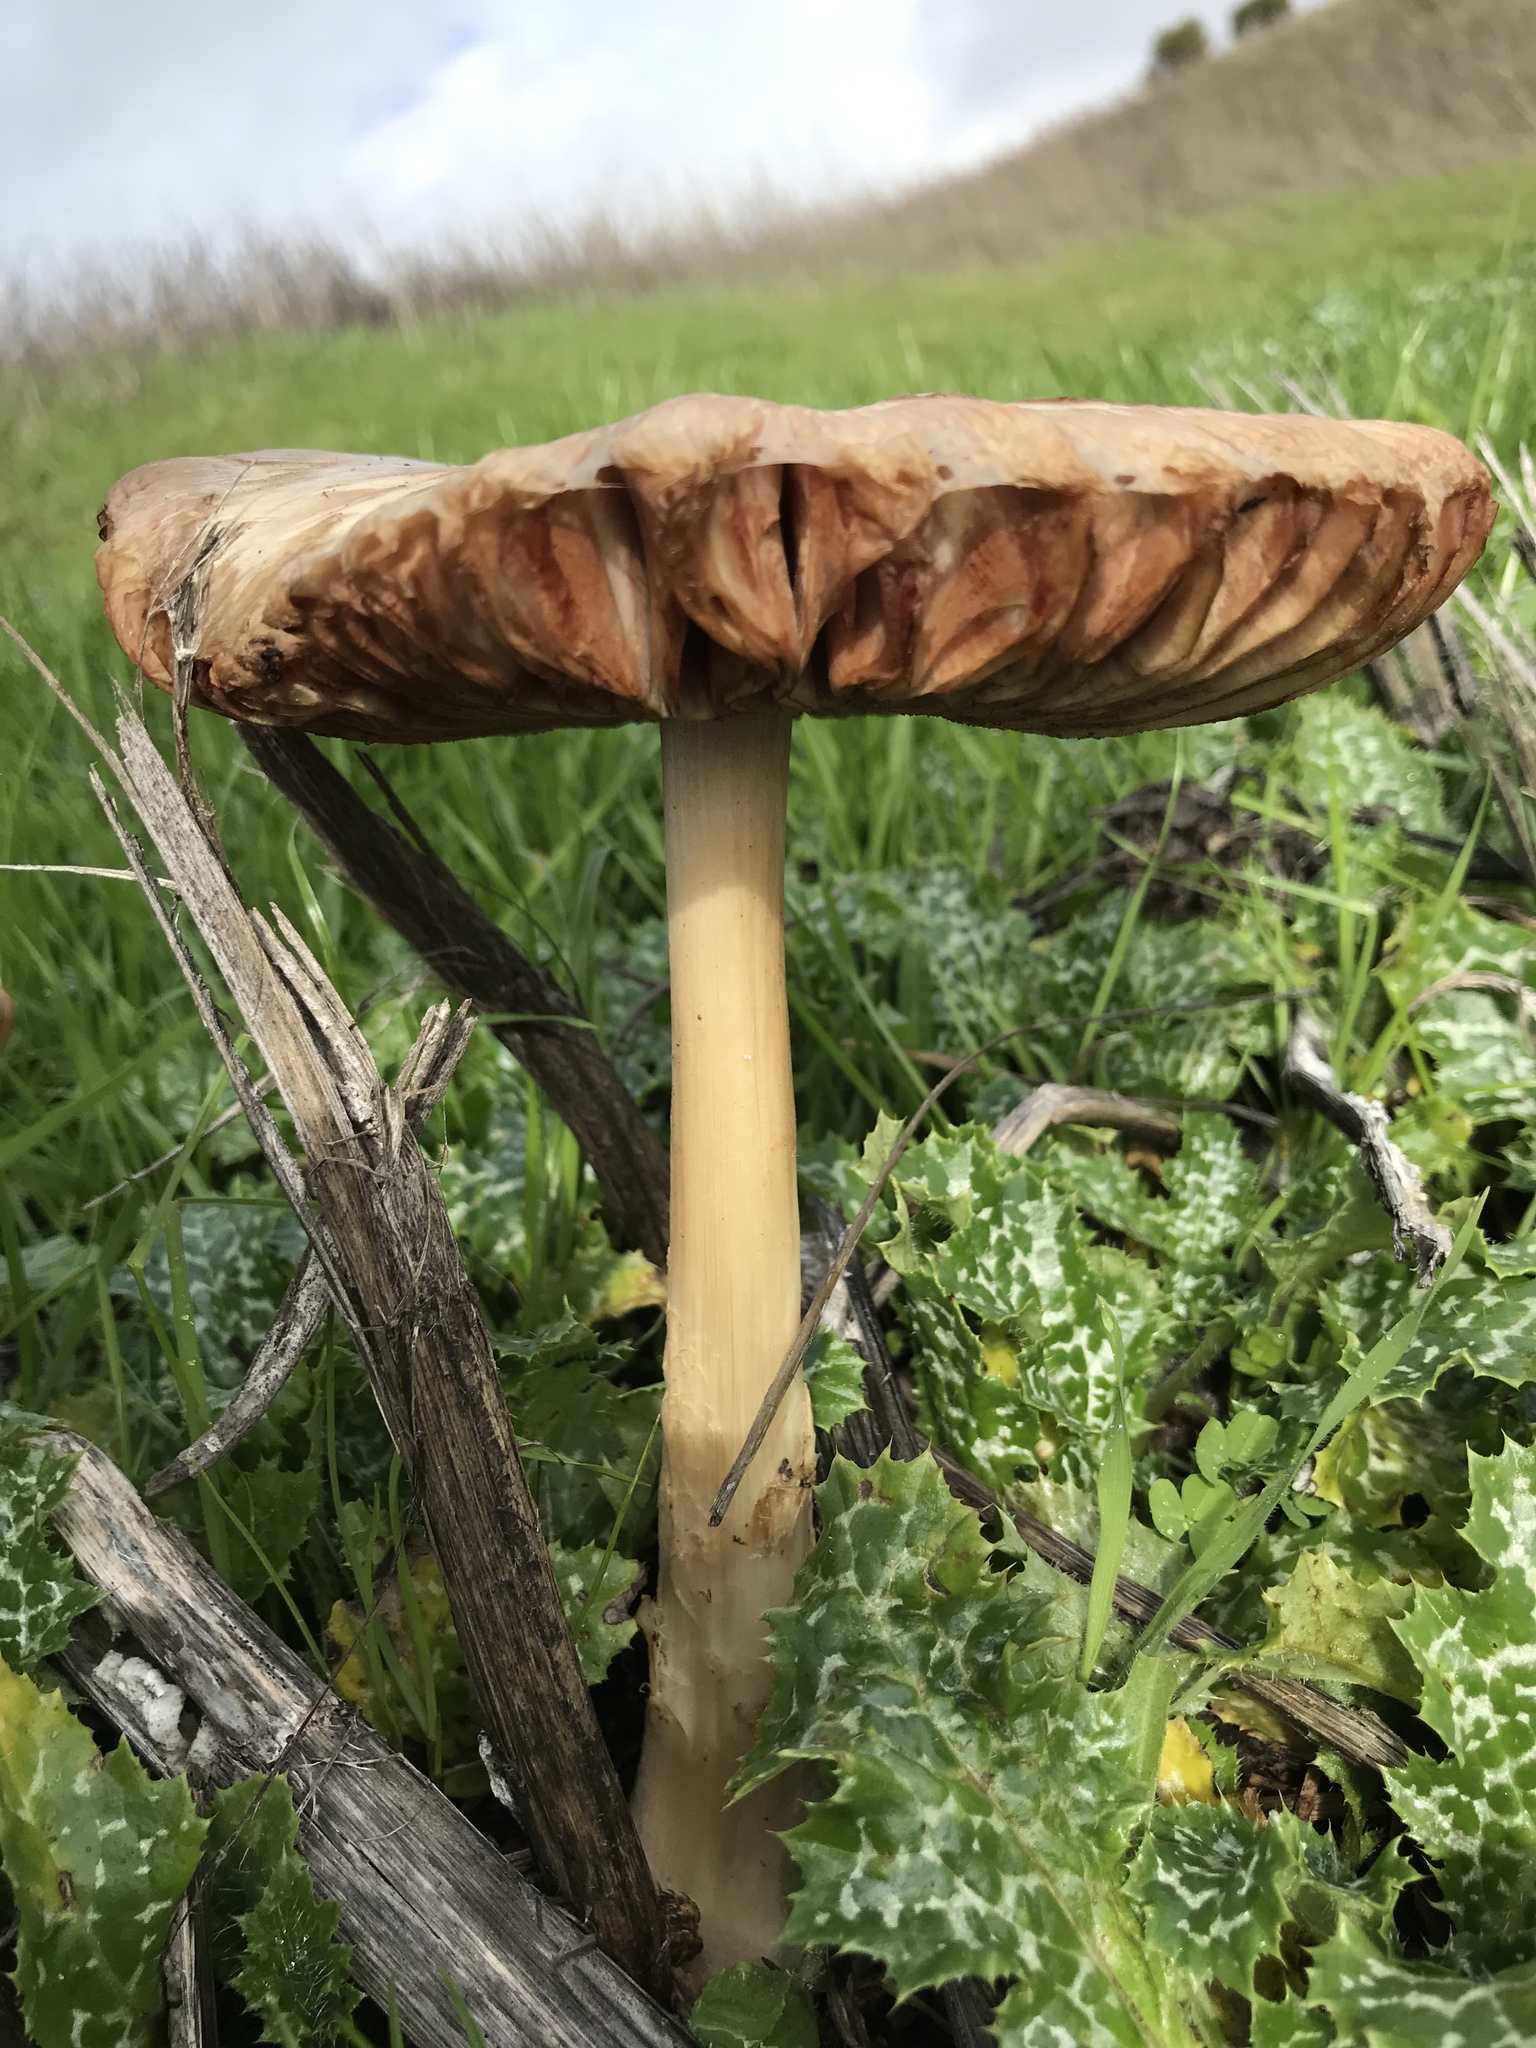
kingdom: Fungi
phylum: Basidiomycota
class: Agaricomycetes
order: Agaricales
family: Pluteaceae
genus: Volvopluteus
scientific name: Volvopluteus gloiocephalus
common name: Stubble rosegill
